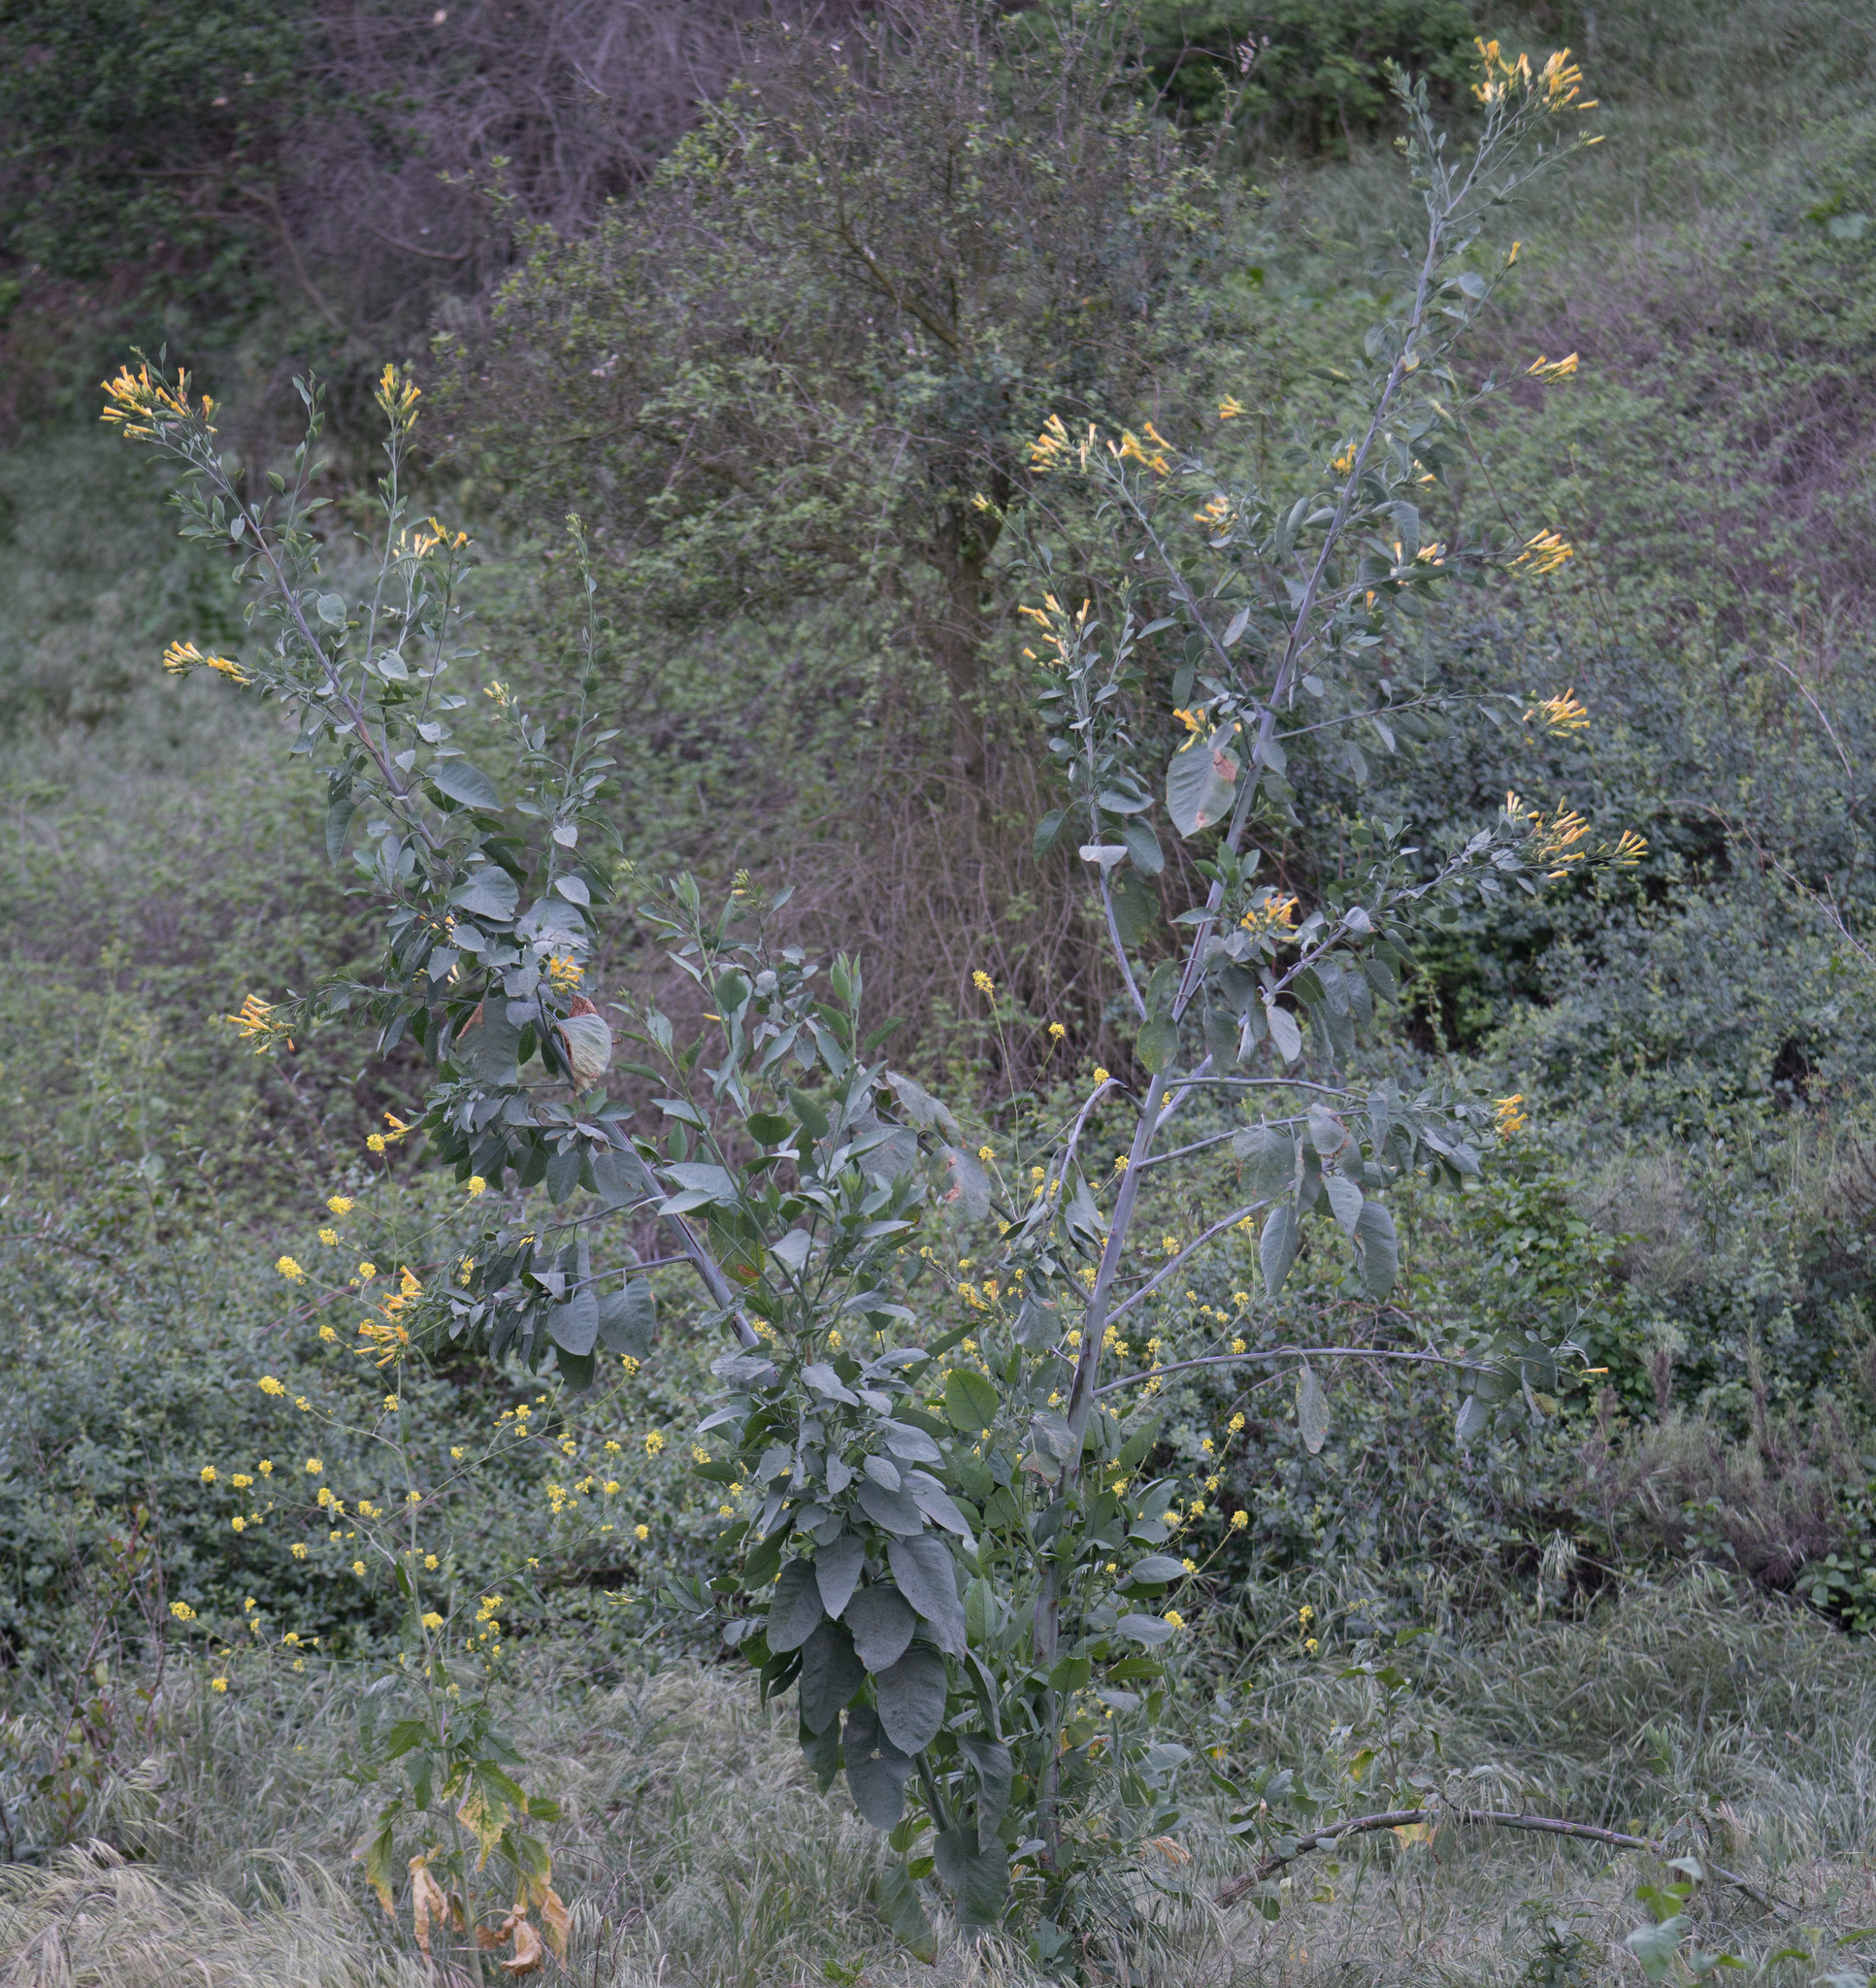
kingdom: Plantae
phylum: Tracheophyta
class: Magnoliopsida
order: Solanales
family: Solanaceae
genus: Nicotiana
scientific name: Nicotiana glauca
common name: Tree tobacco
